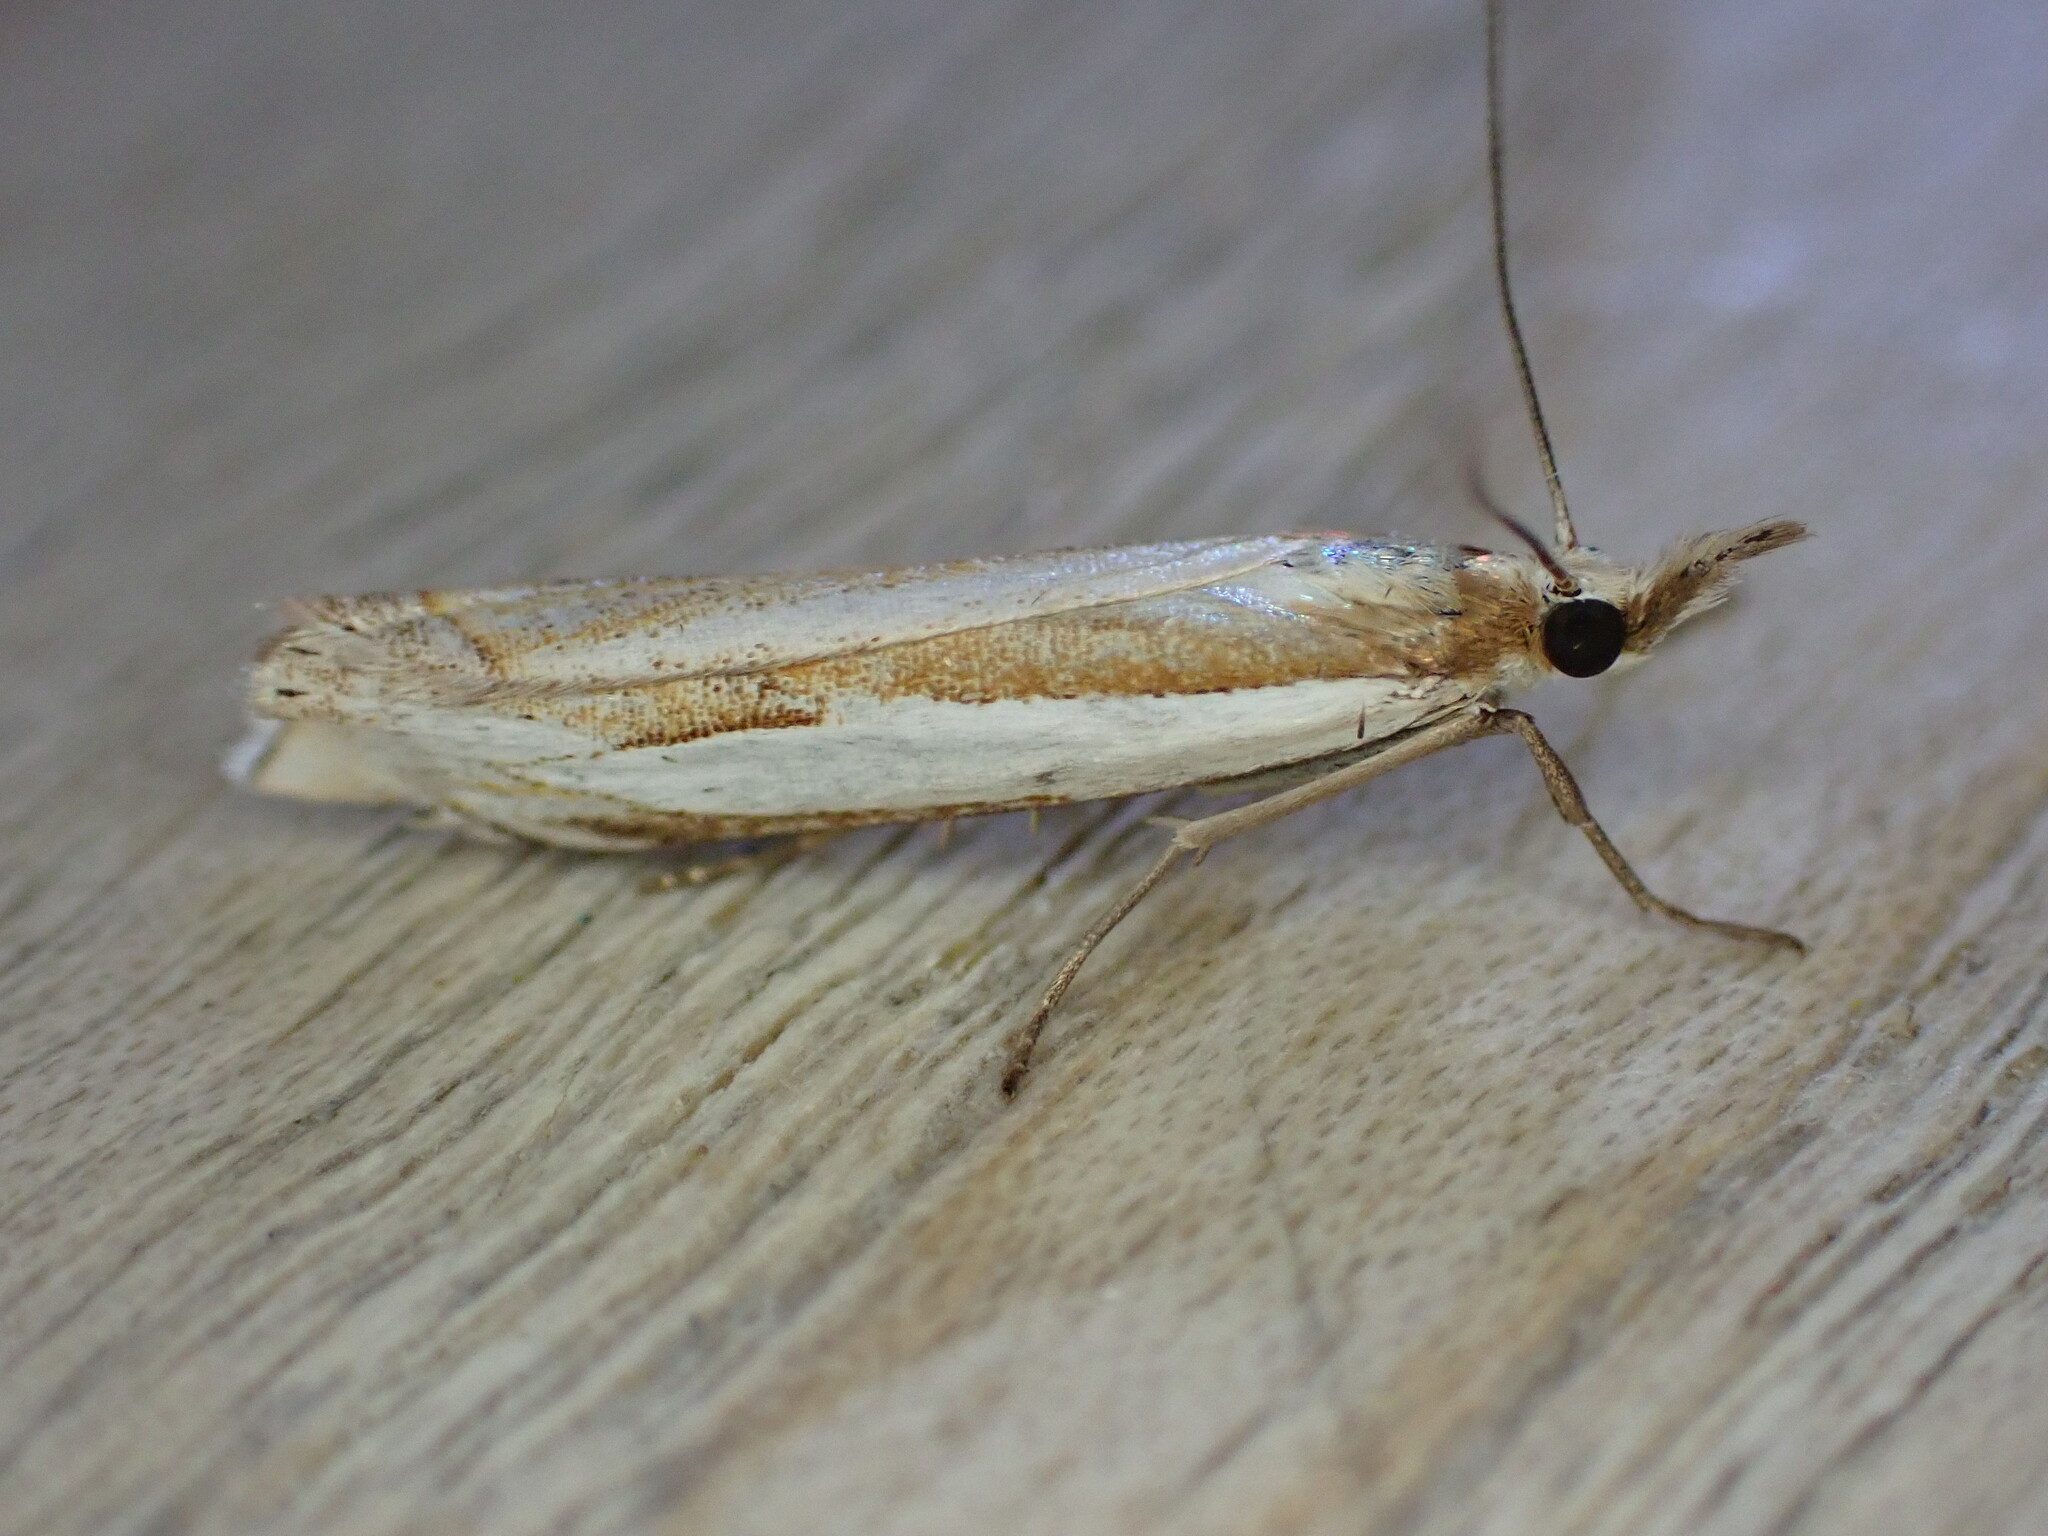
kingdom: Animalia
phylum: Arthropoda
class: Insecta
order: Lepidoptera
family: Crambidae
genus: Crambus
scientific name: Crambus pascuella
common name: Inlaid grass-veneer
